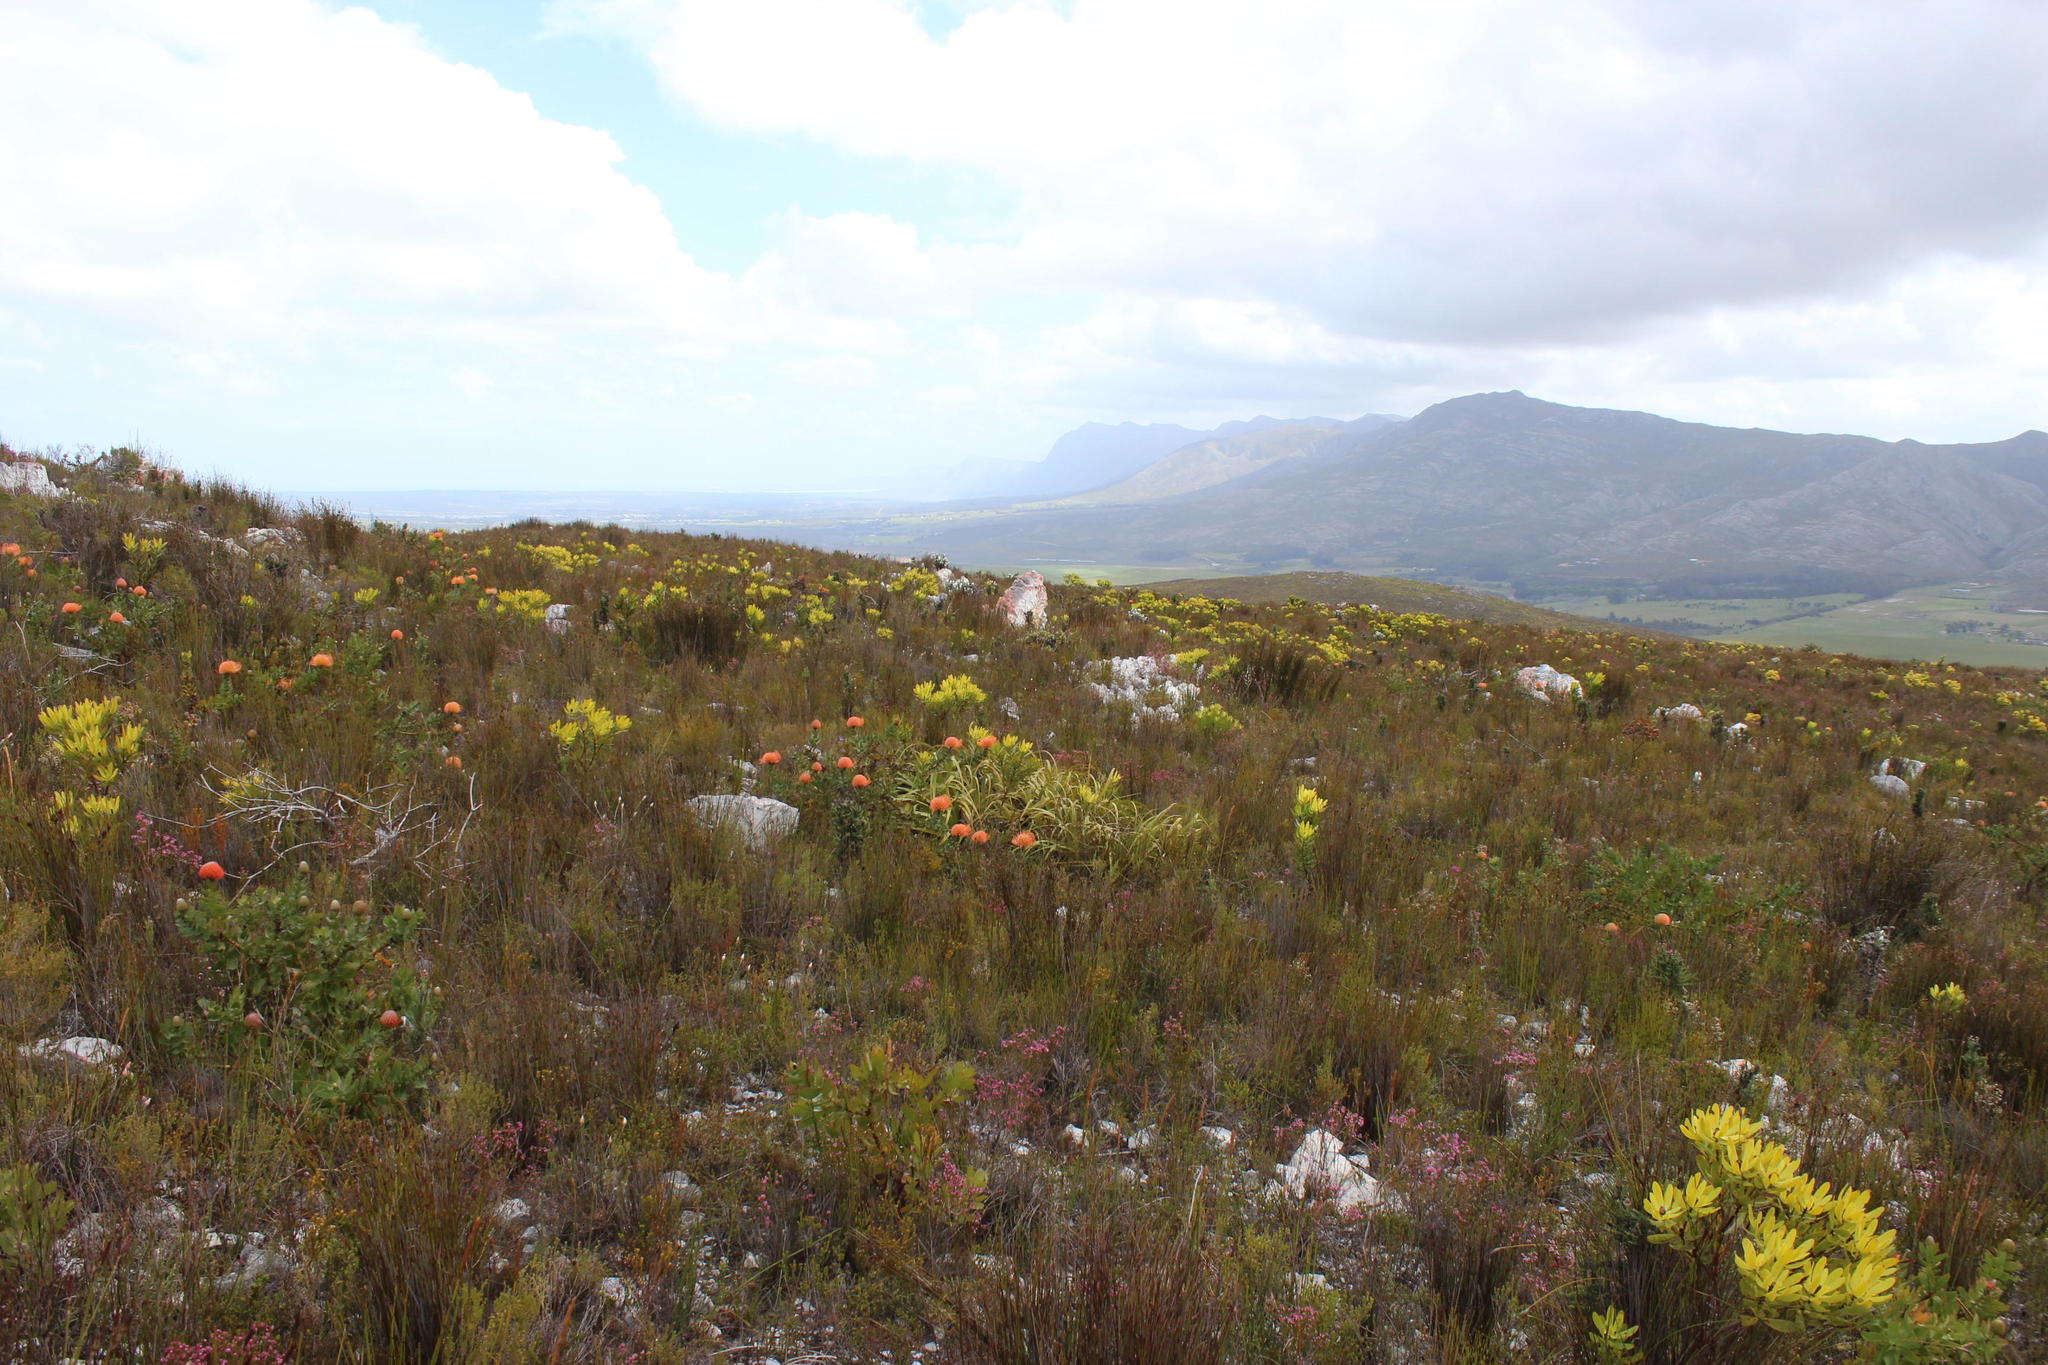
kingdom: Plantae
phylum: Tracheophyta
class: Magnoliopsida
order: Proteales
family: Proteaceae
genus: Leucospermum
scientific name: Leucospermum cordifolium
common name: Red pincushion-protea
